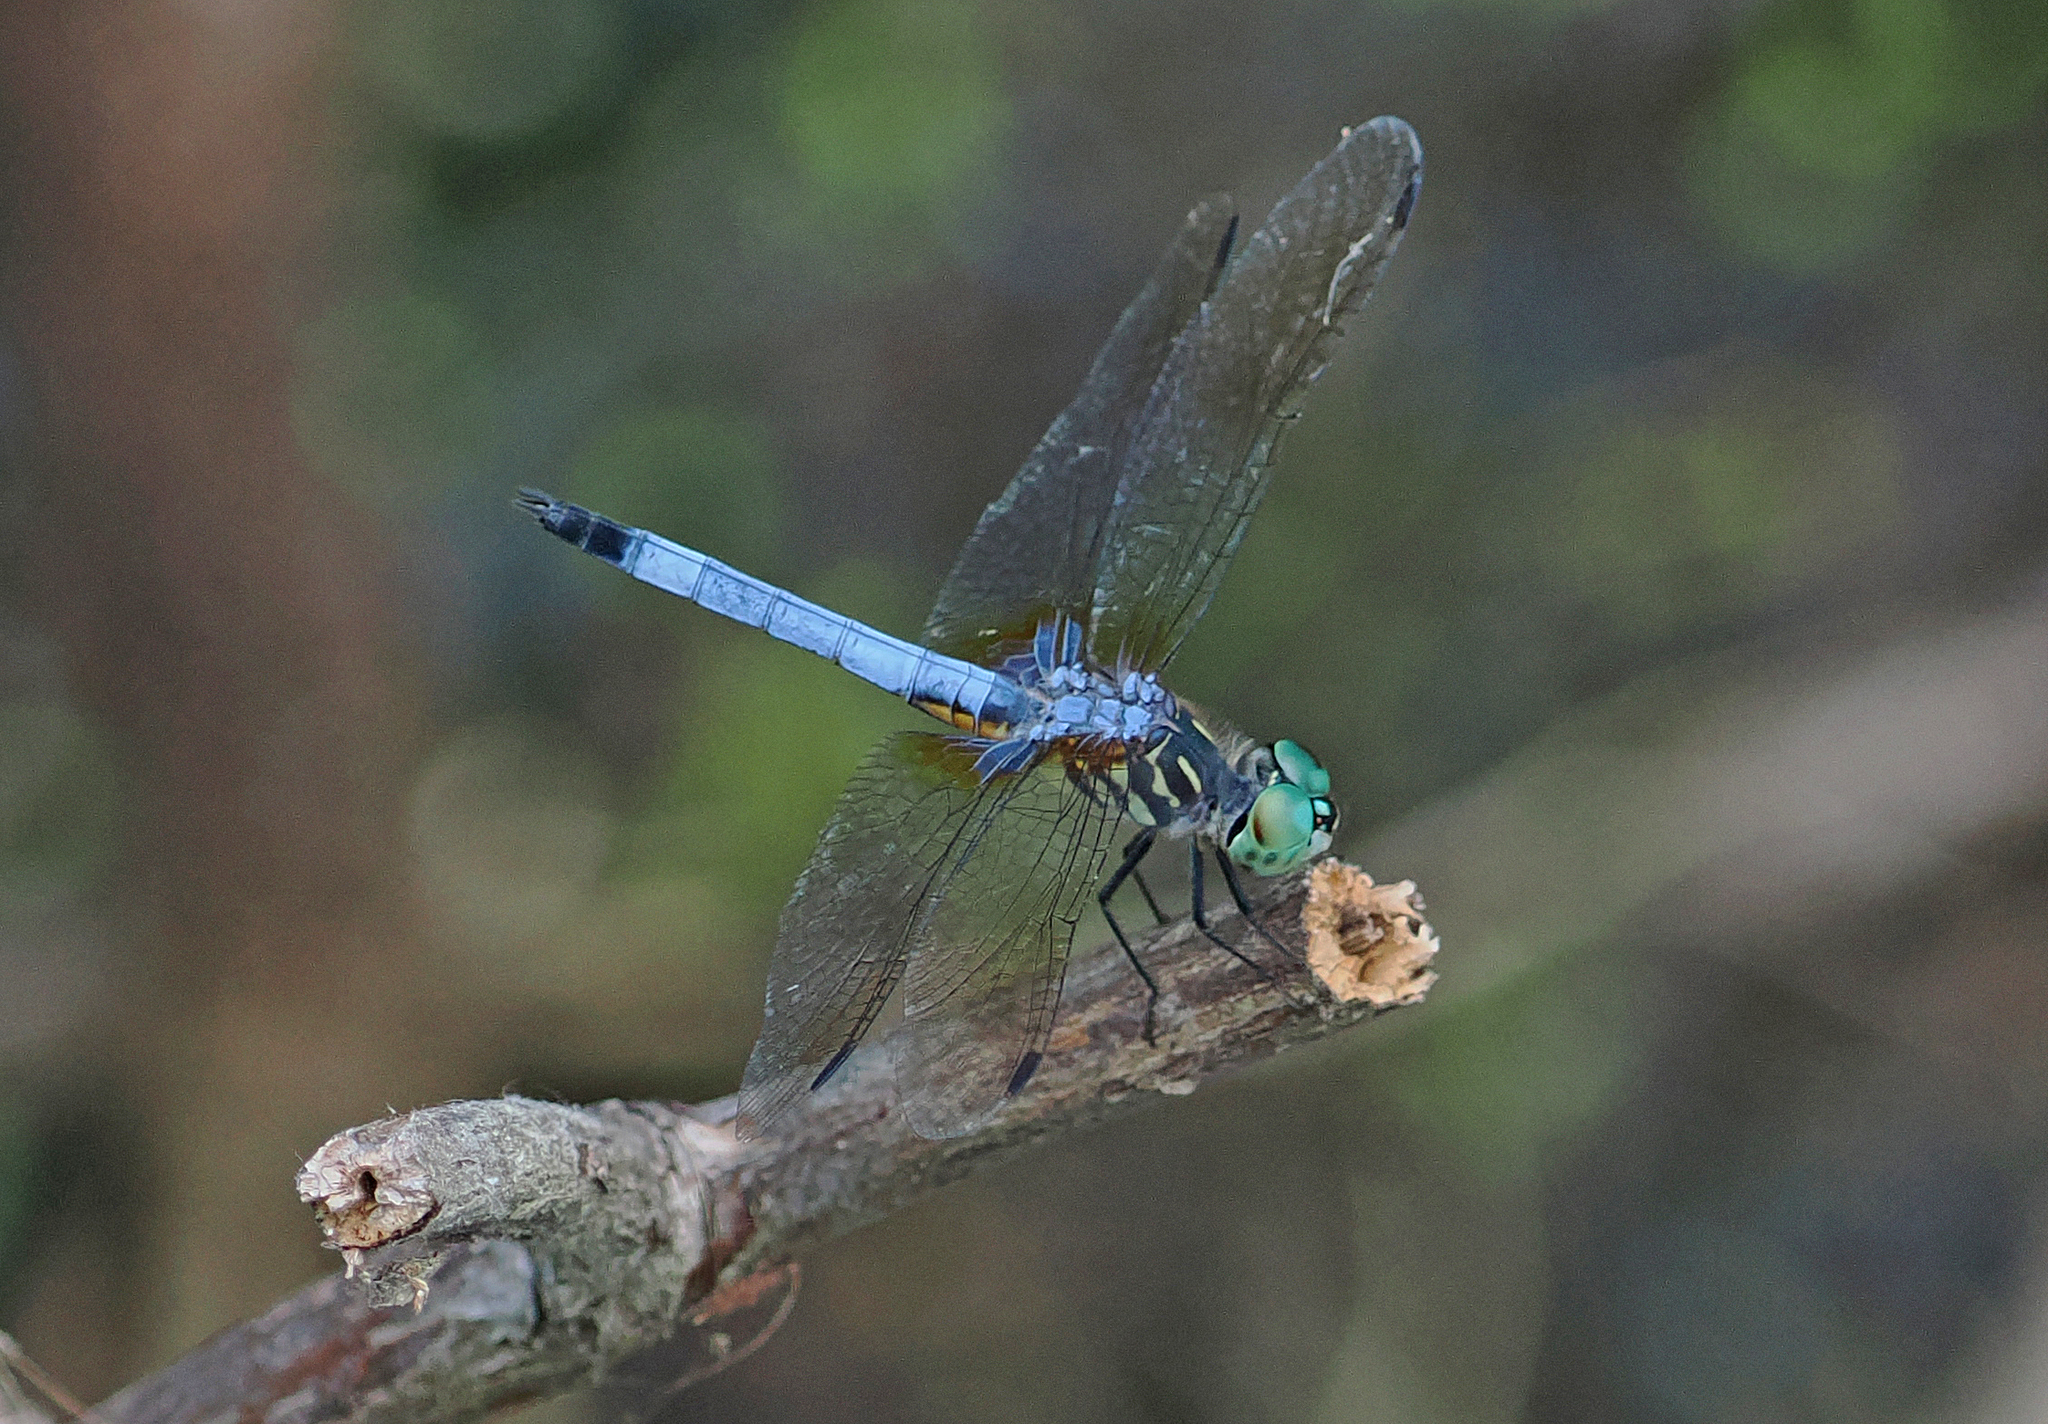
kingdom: Animalia
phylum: Arthropoda
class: Insecta
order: Odonata
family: Libellulidae
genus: Pachydiplax
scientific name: Pachydiplax longipennis
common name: Blue dasher
